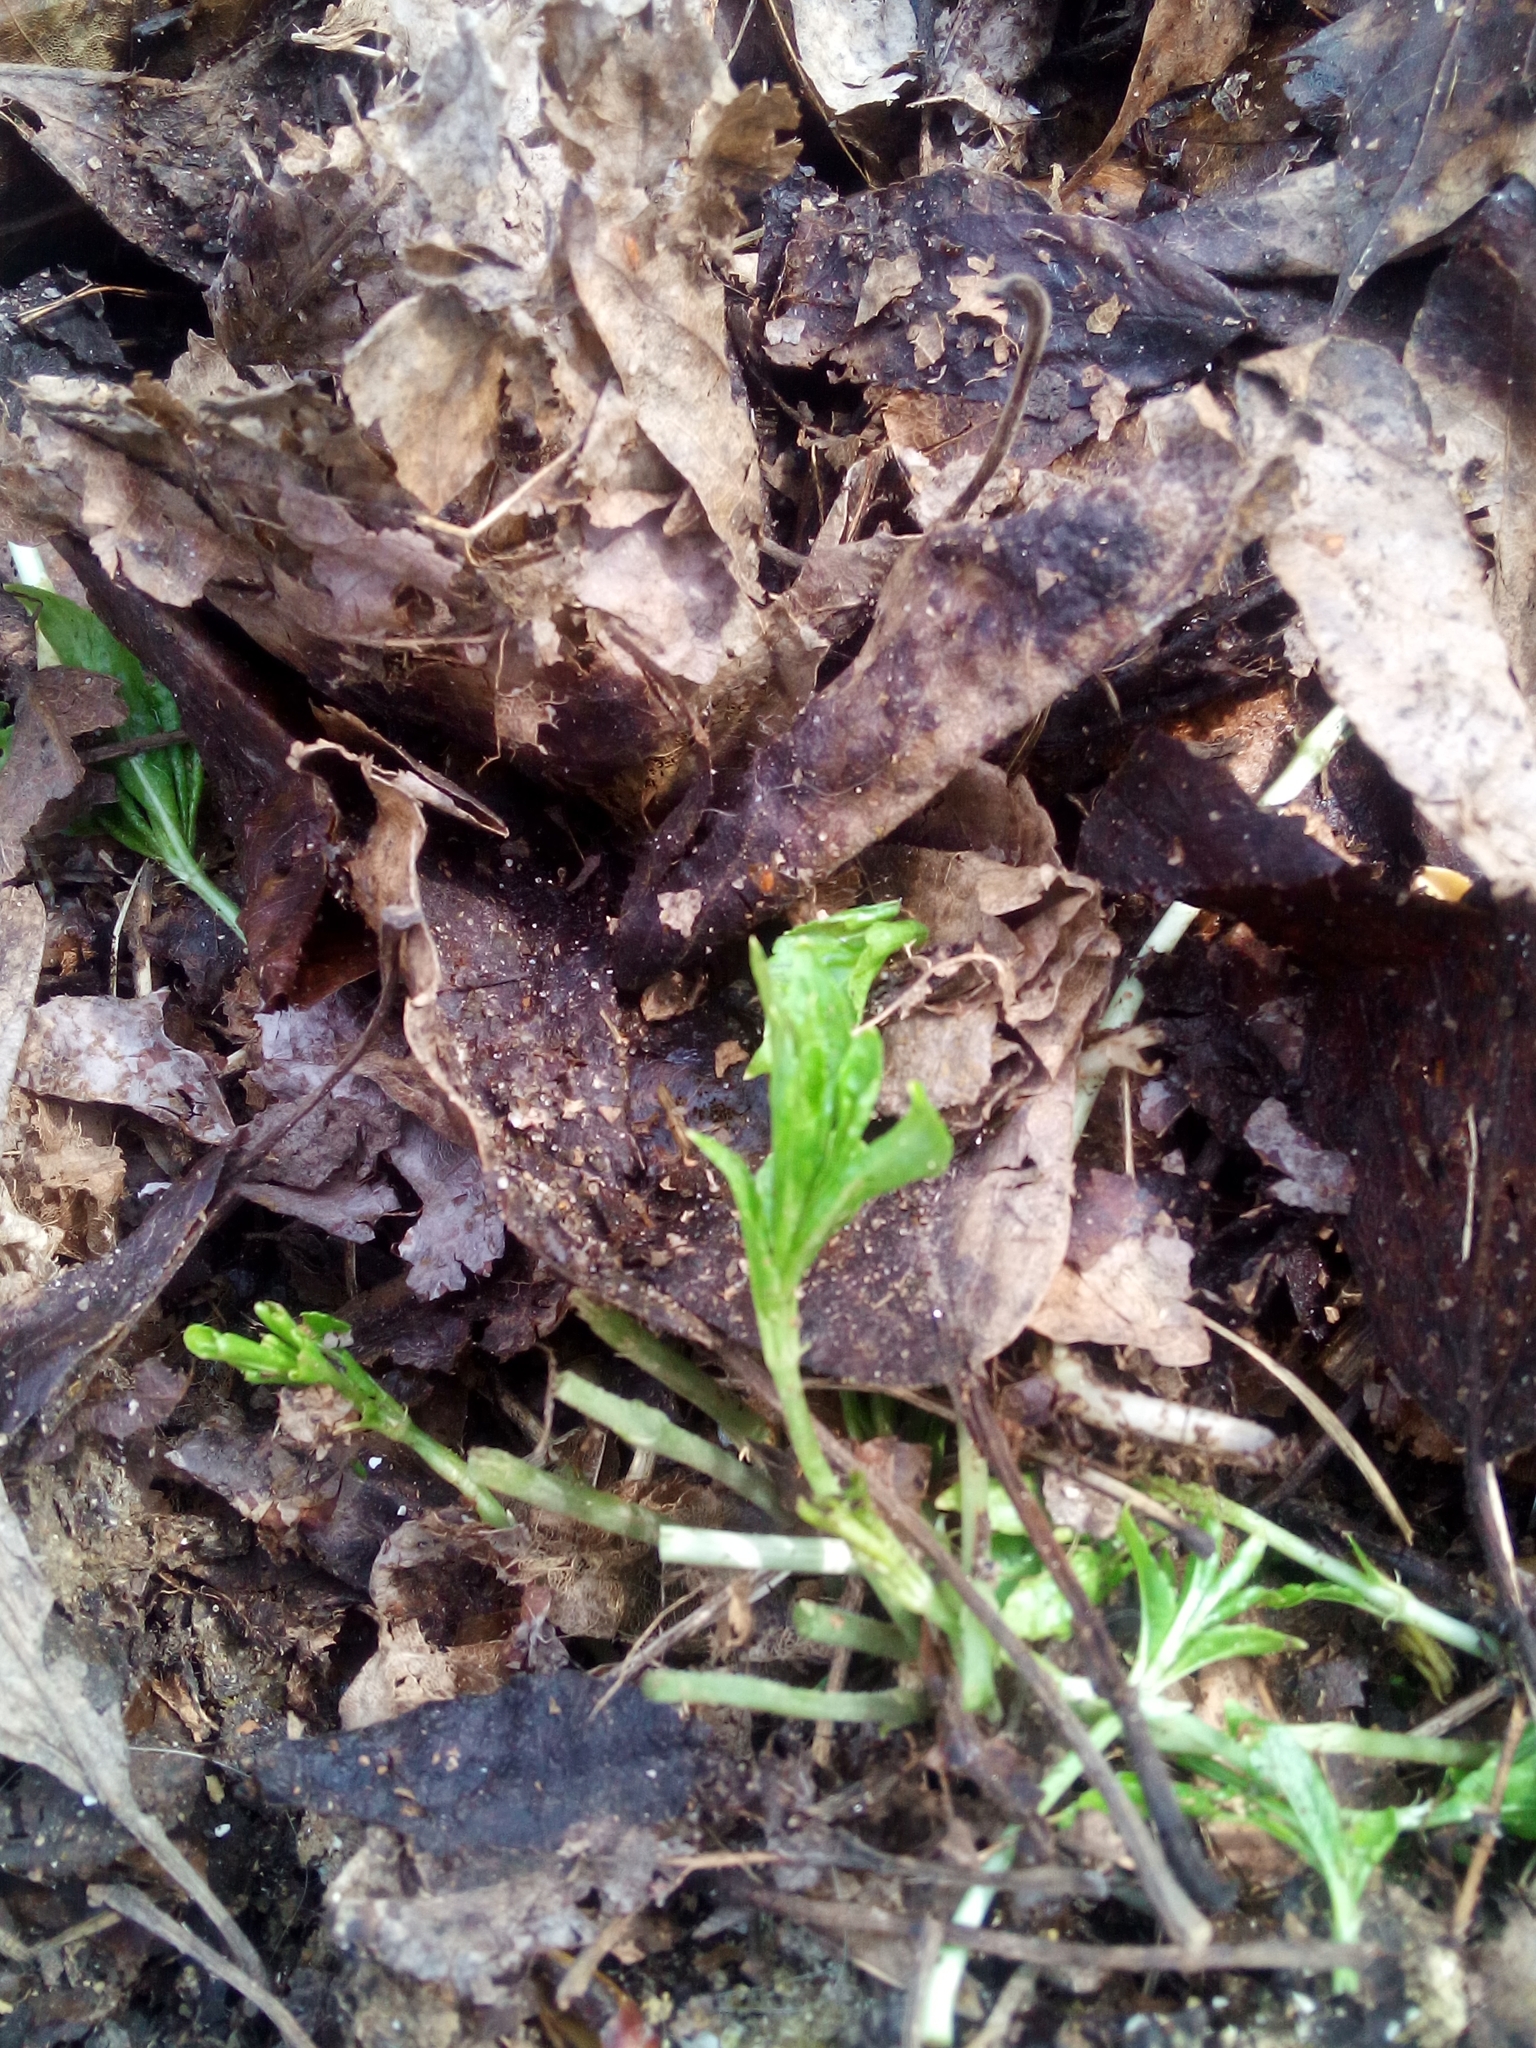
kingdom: Plantae
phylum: Tracheophyta
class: Magnoliopsida
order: Malpighiales
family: Euphorbiaceae
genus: Mercurialis
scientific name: Mercurialis perennis
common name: Dog mercury
